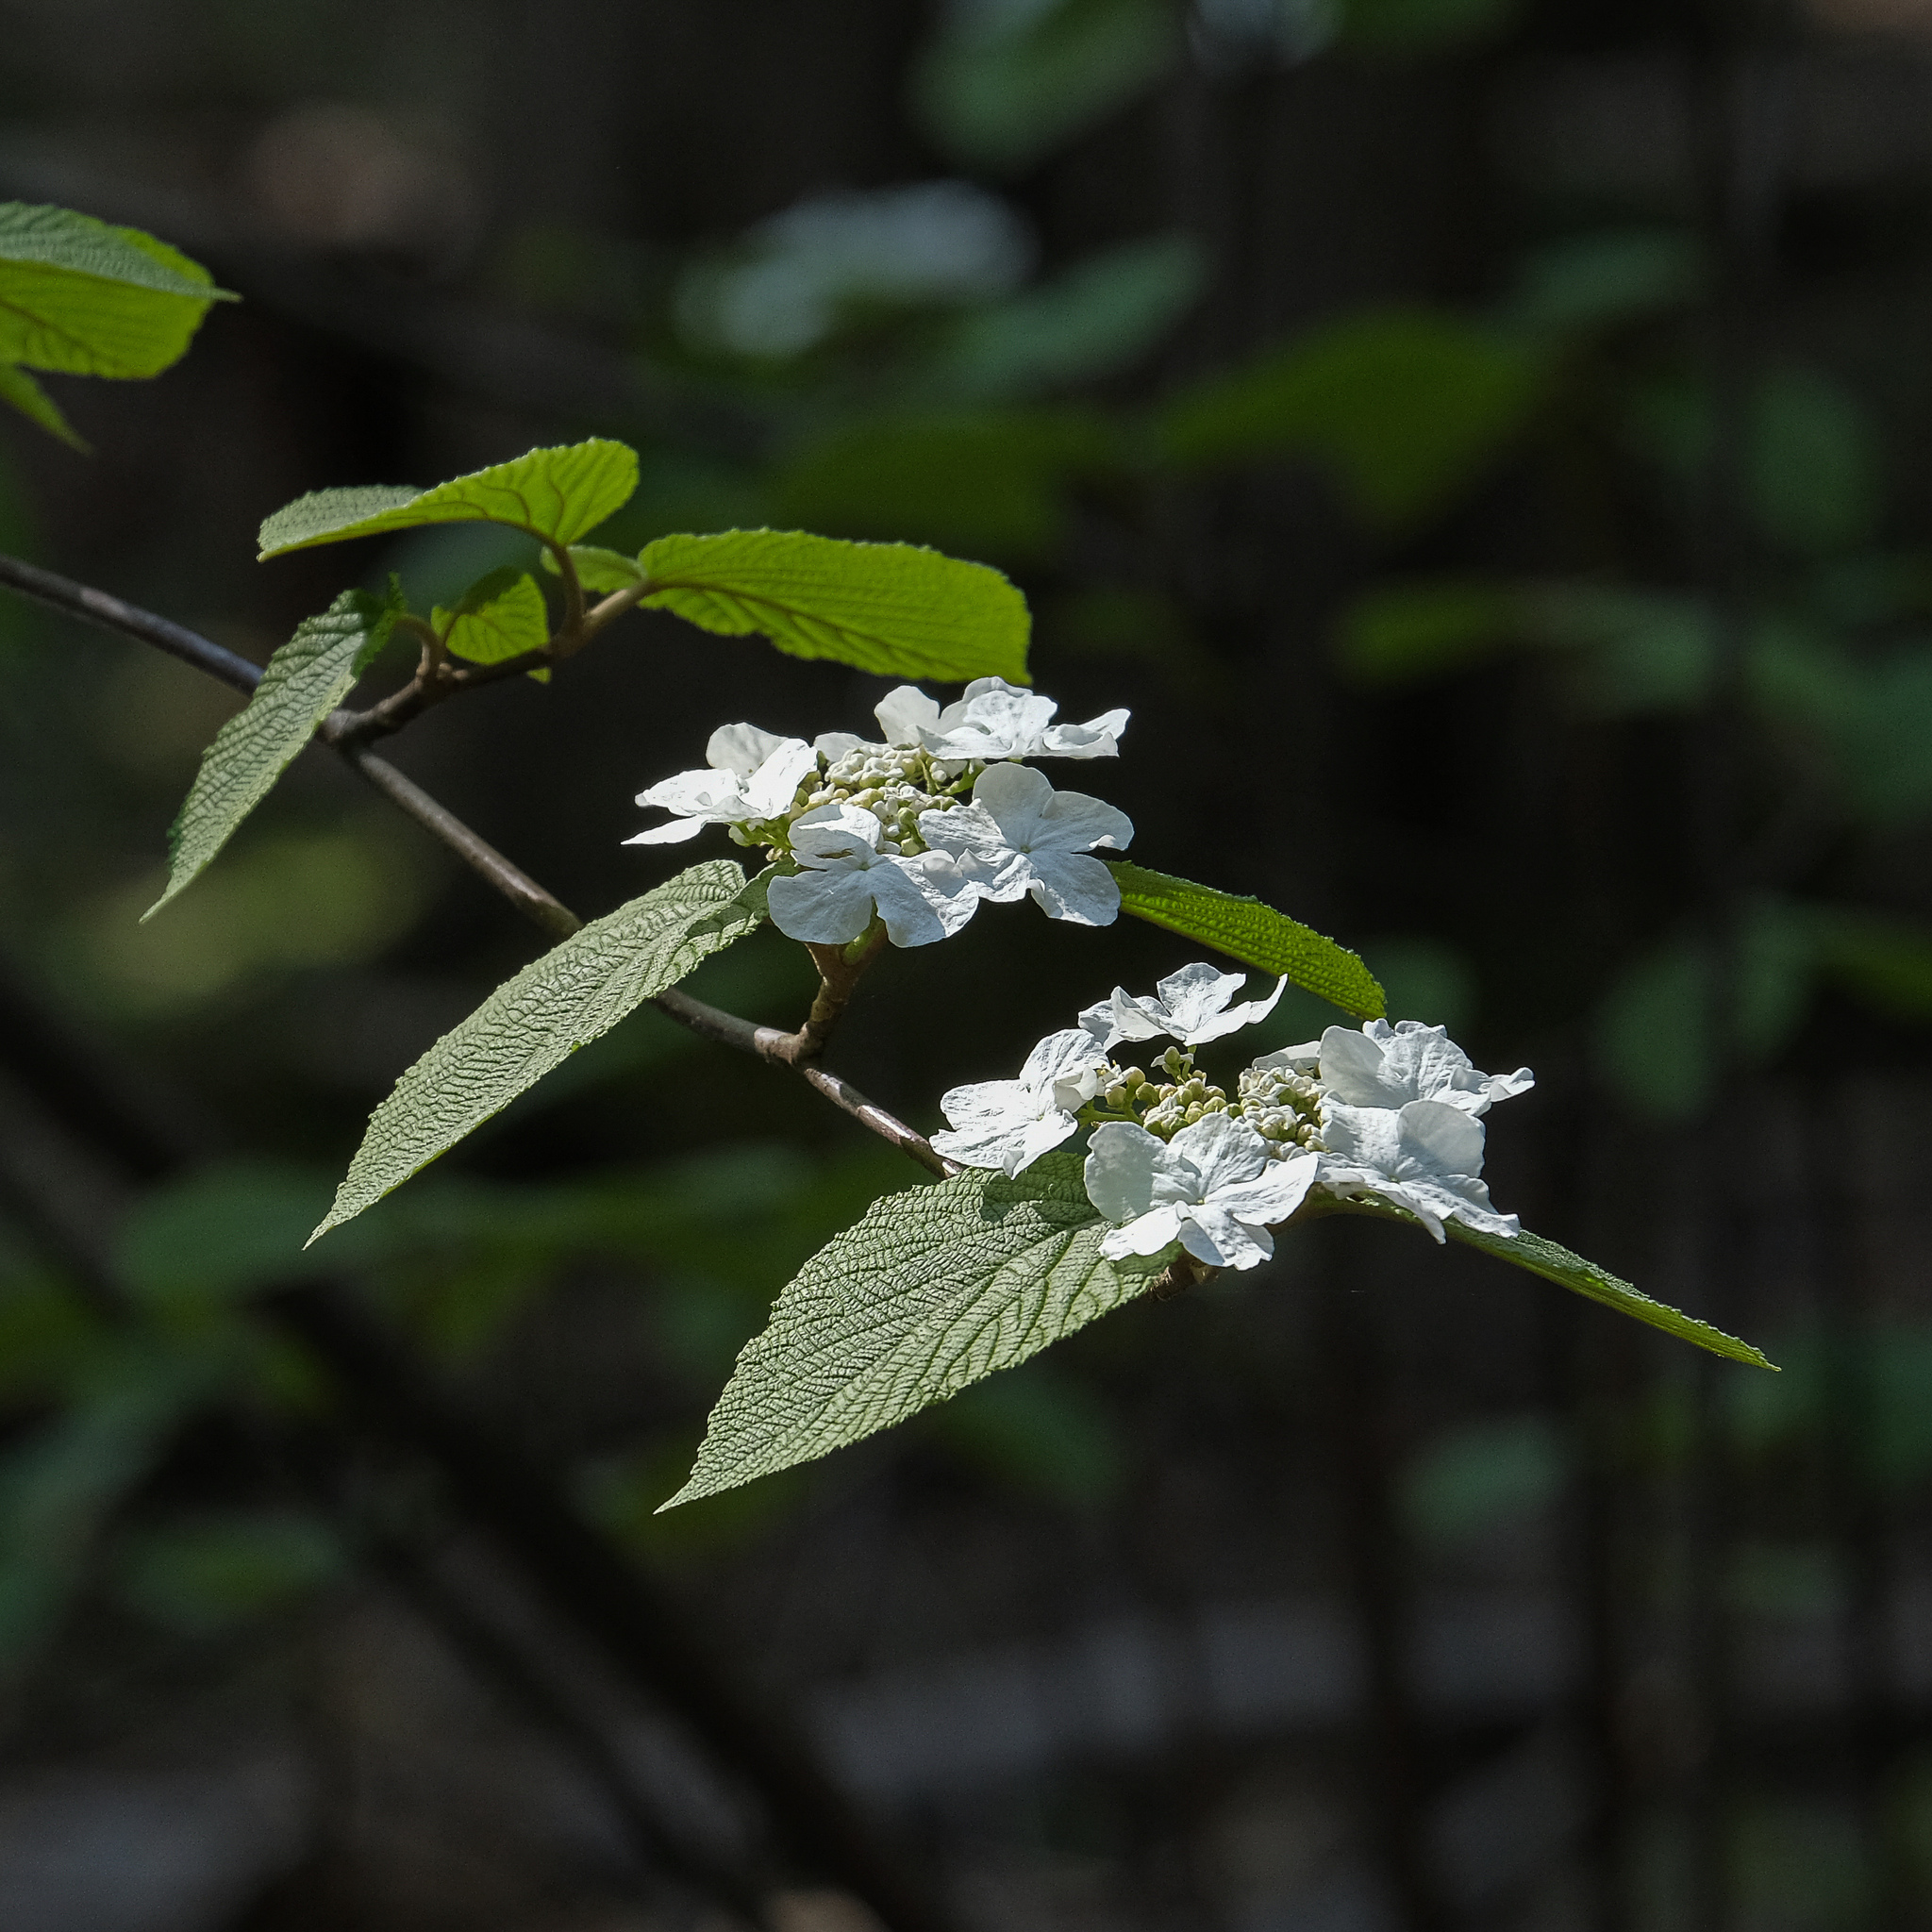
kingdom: Plantae
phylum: Tracheophyta
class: Magnoliopsida
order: Dipsacales
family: Viburnaceae
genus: Viburnum
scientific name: Viburnum lantanoides
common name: Hobblebush
